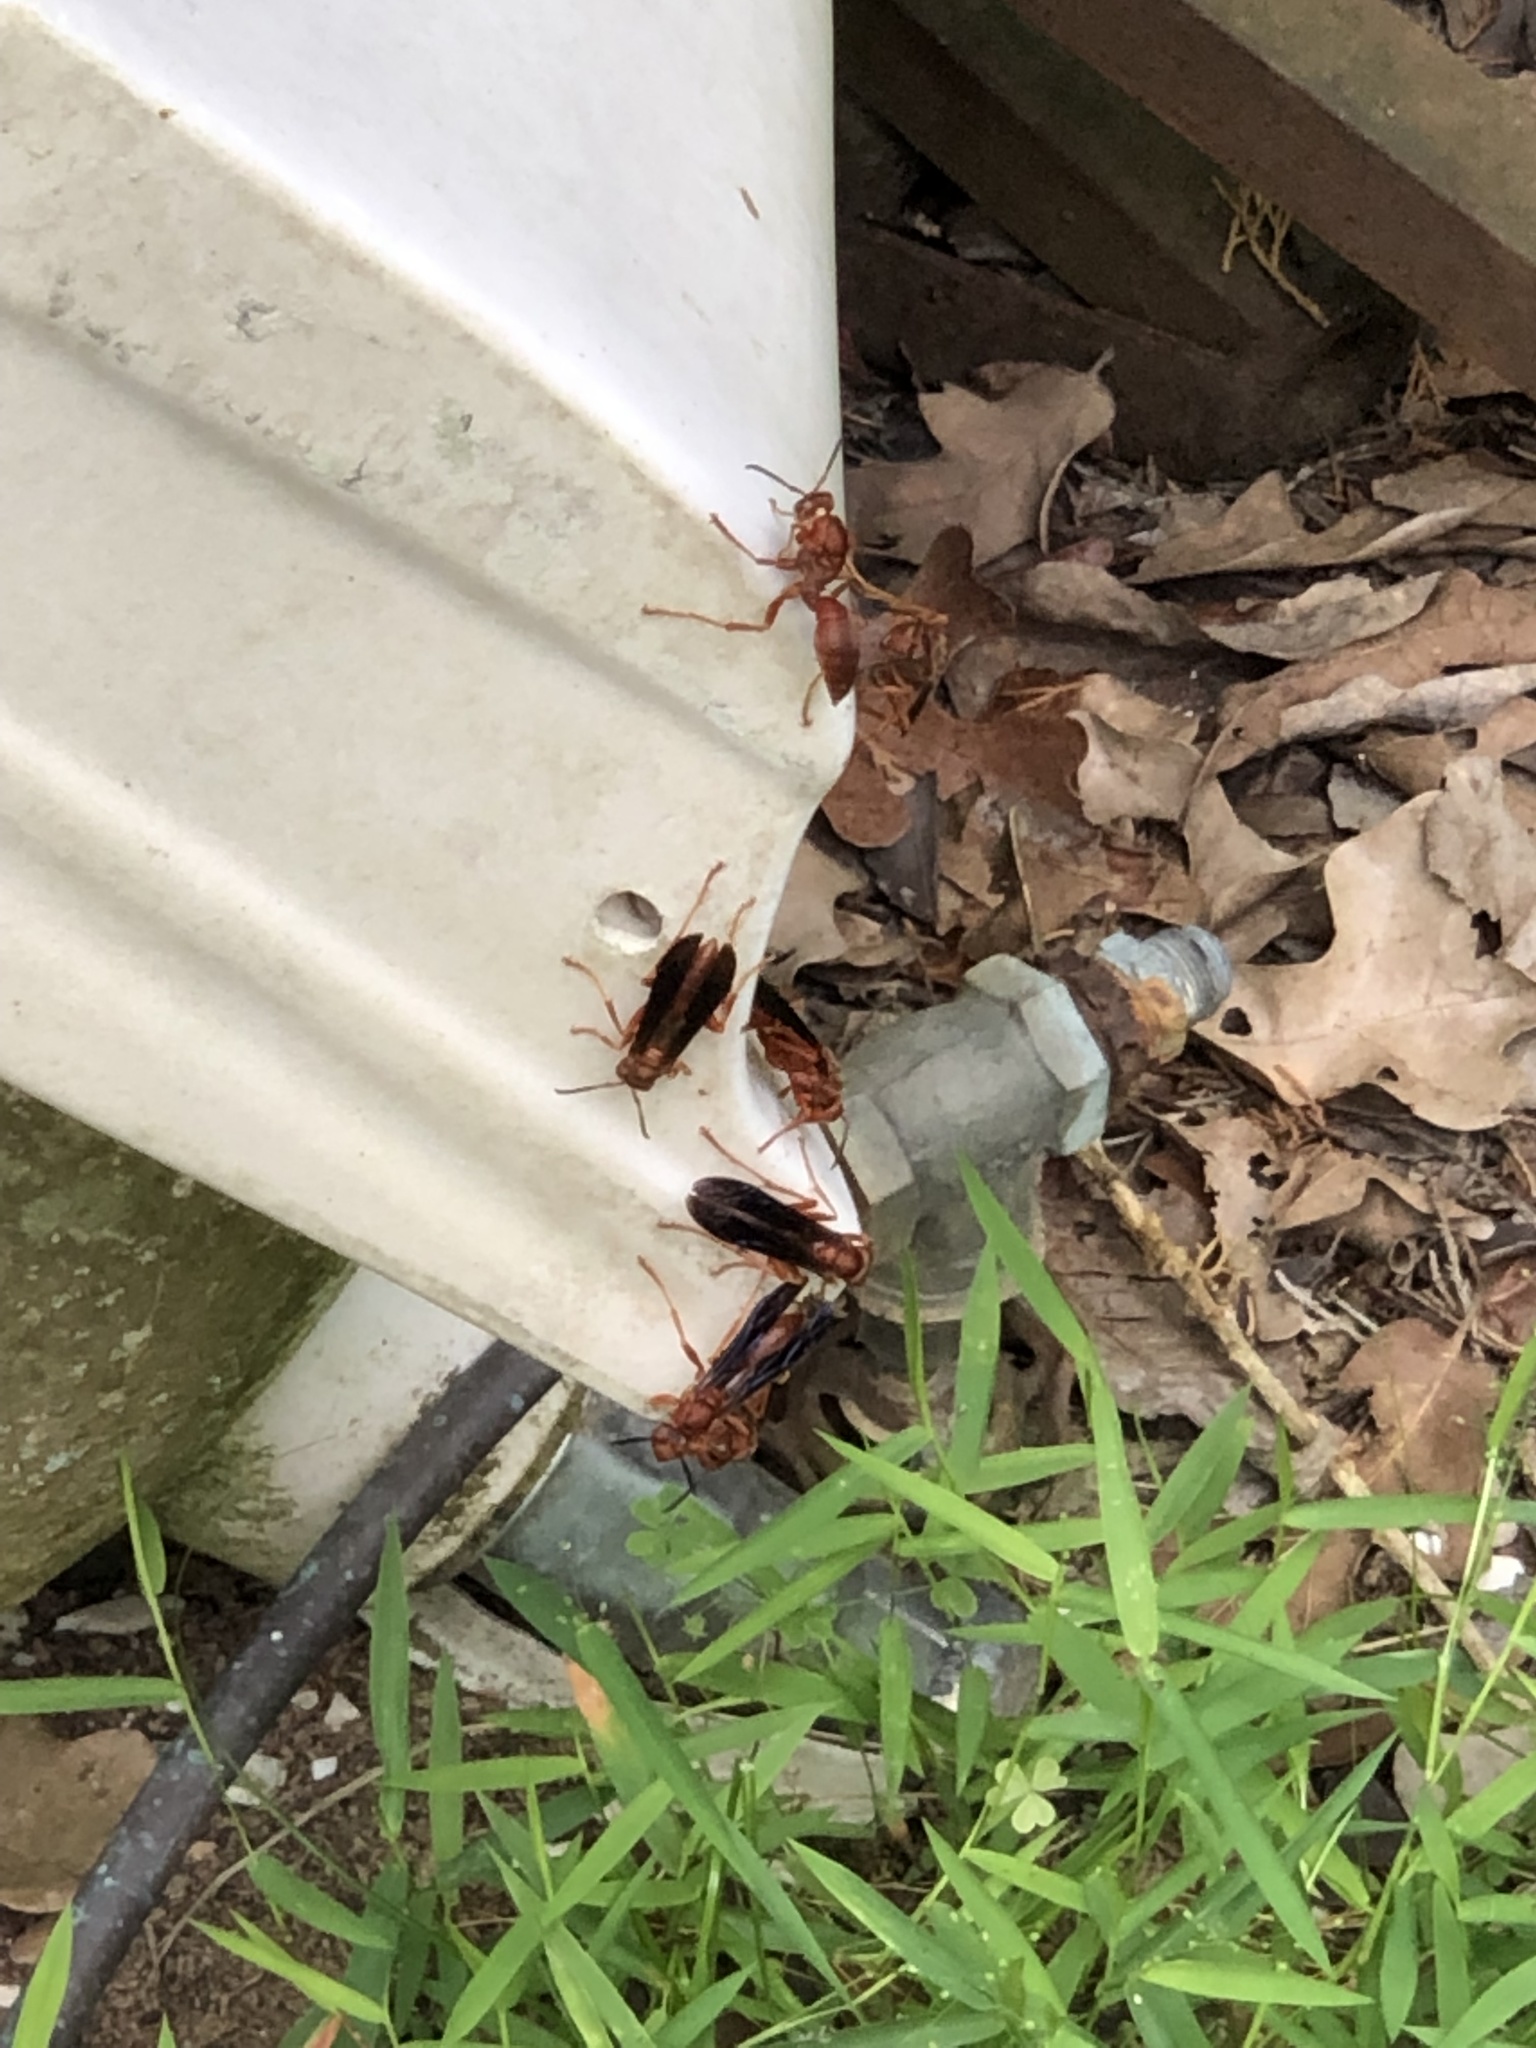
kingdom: Animalia
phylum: Arthropoda
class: Insecta
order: Hymenoptera
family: Vespidae
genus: Fuscopolistes
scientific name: Fuscopolistes
